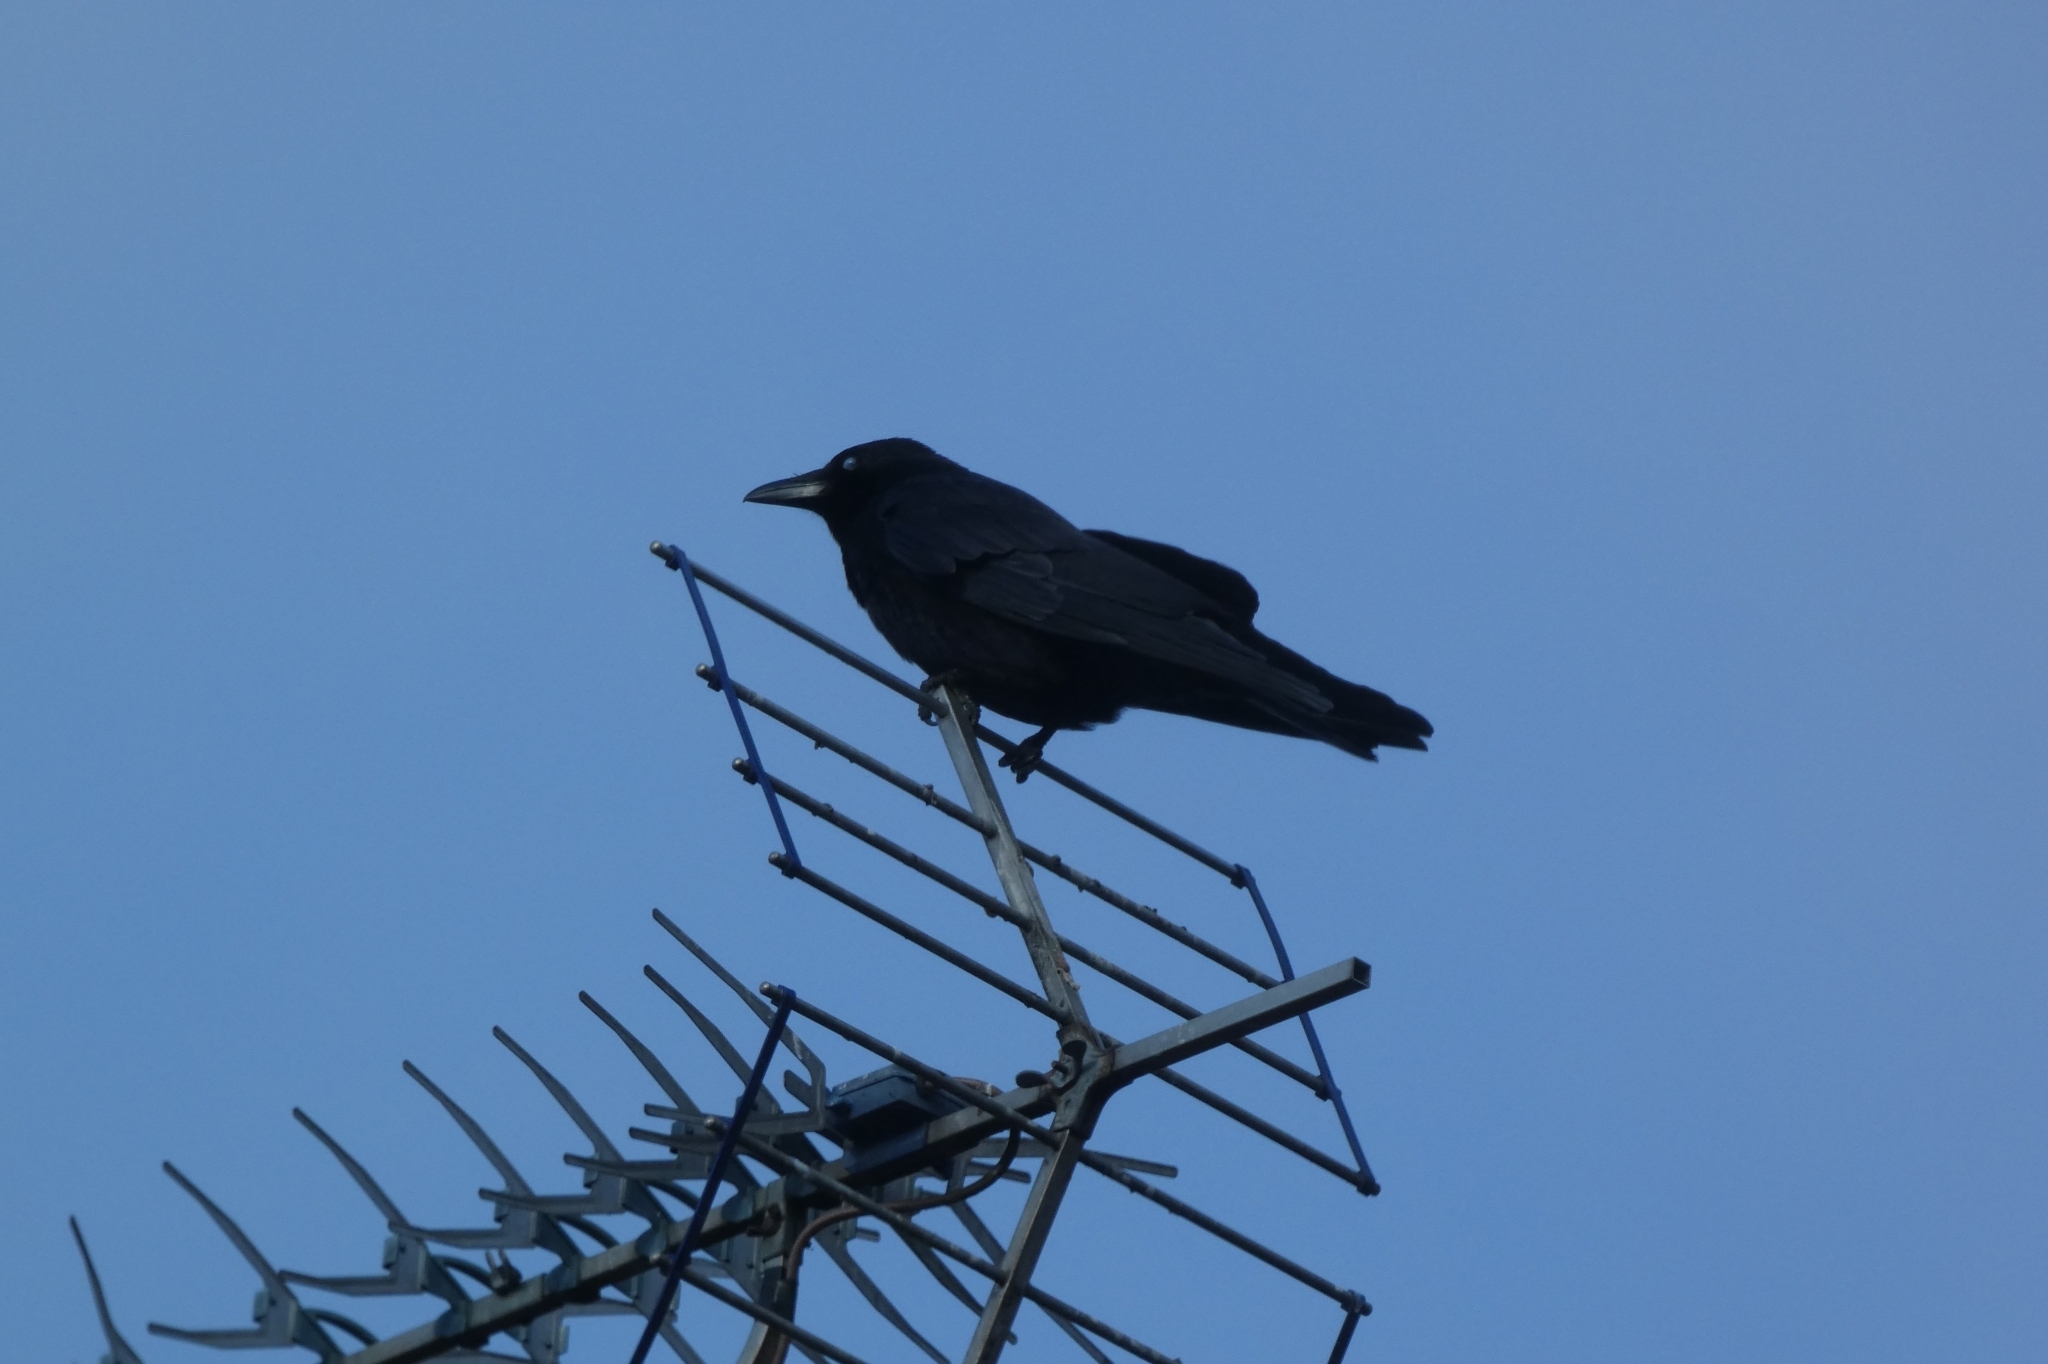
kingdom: Animalia
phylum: Chordata
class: Aves
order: Passeriformes
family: Corvidae
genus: Corvus
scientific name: Corvus corone
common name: Carrion crow
